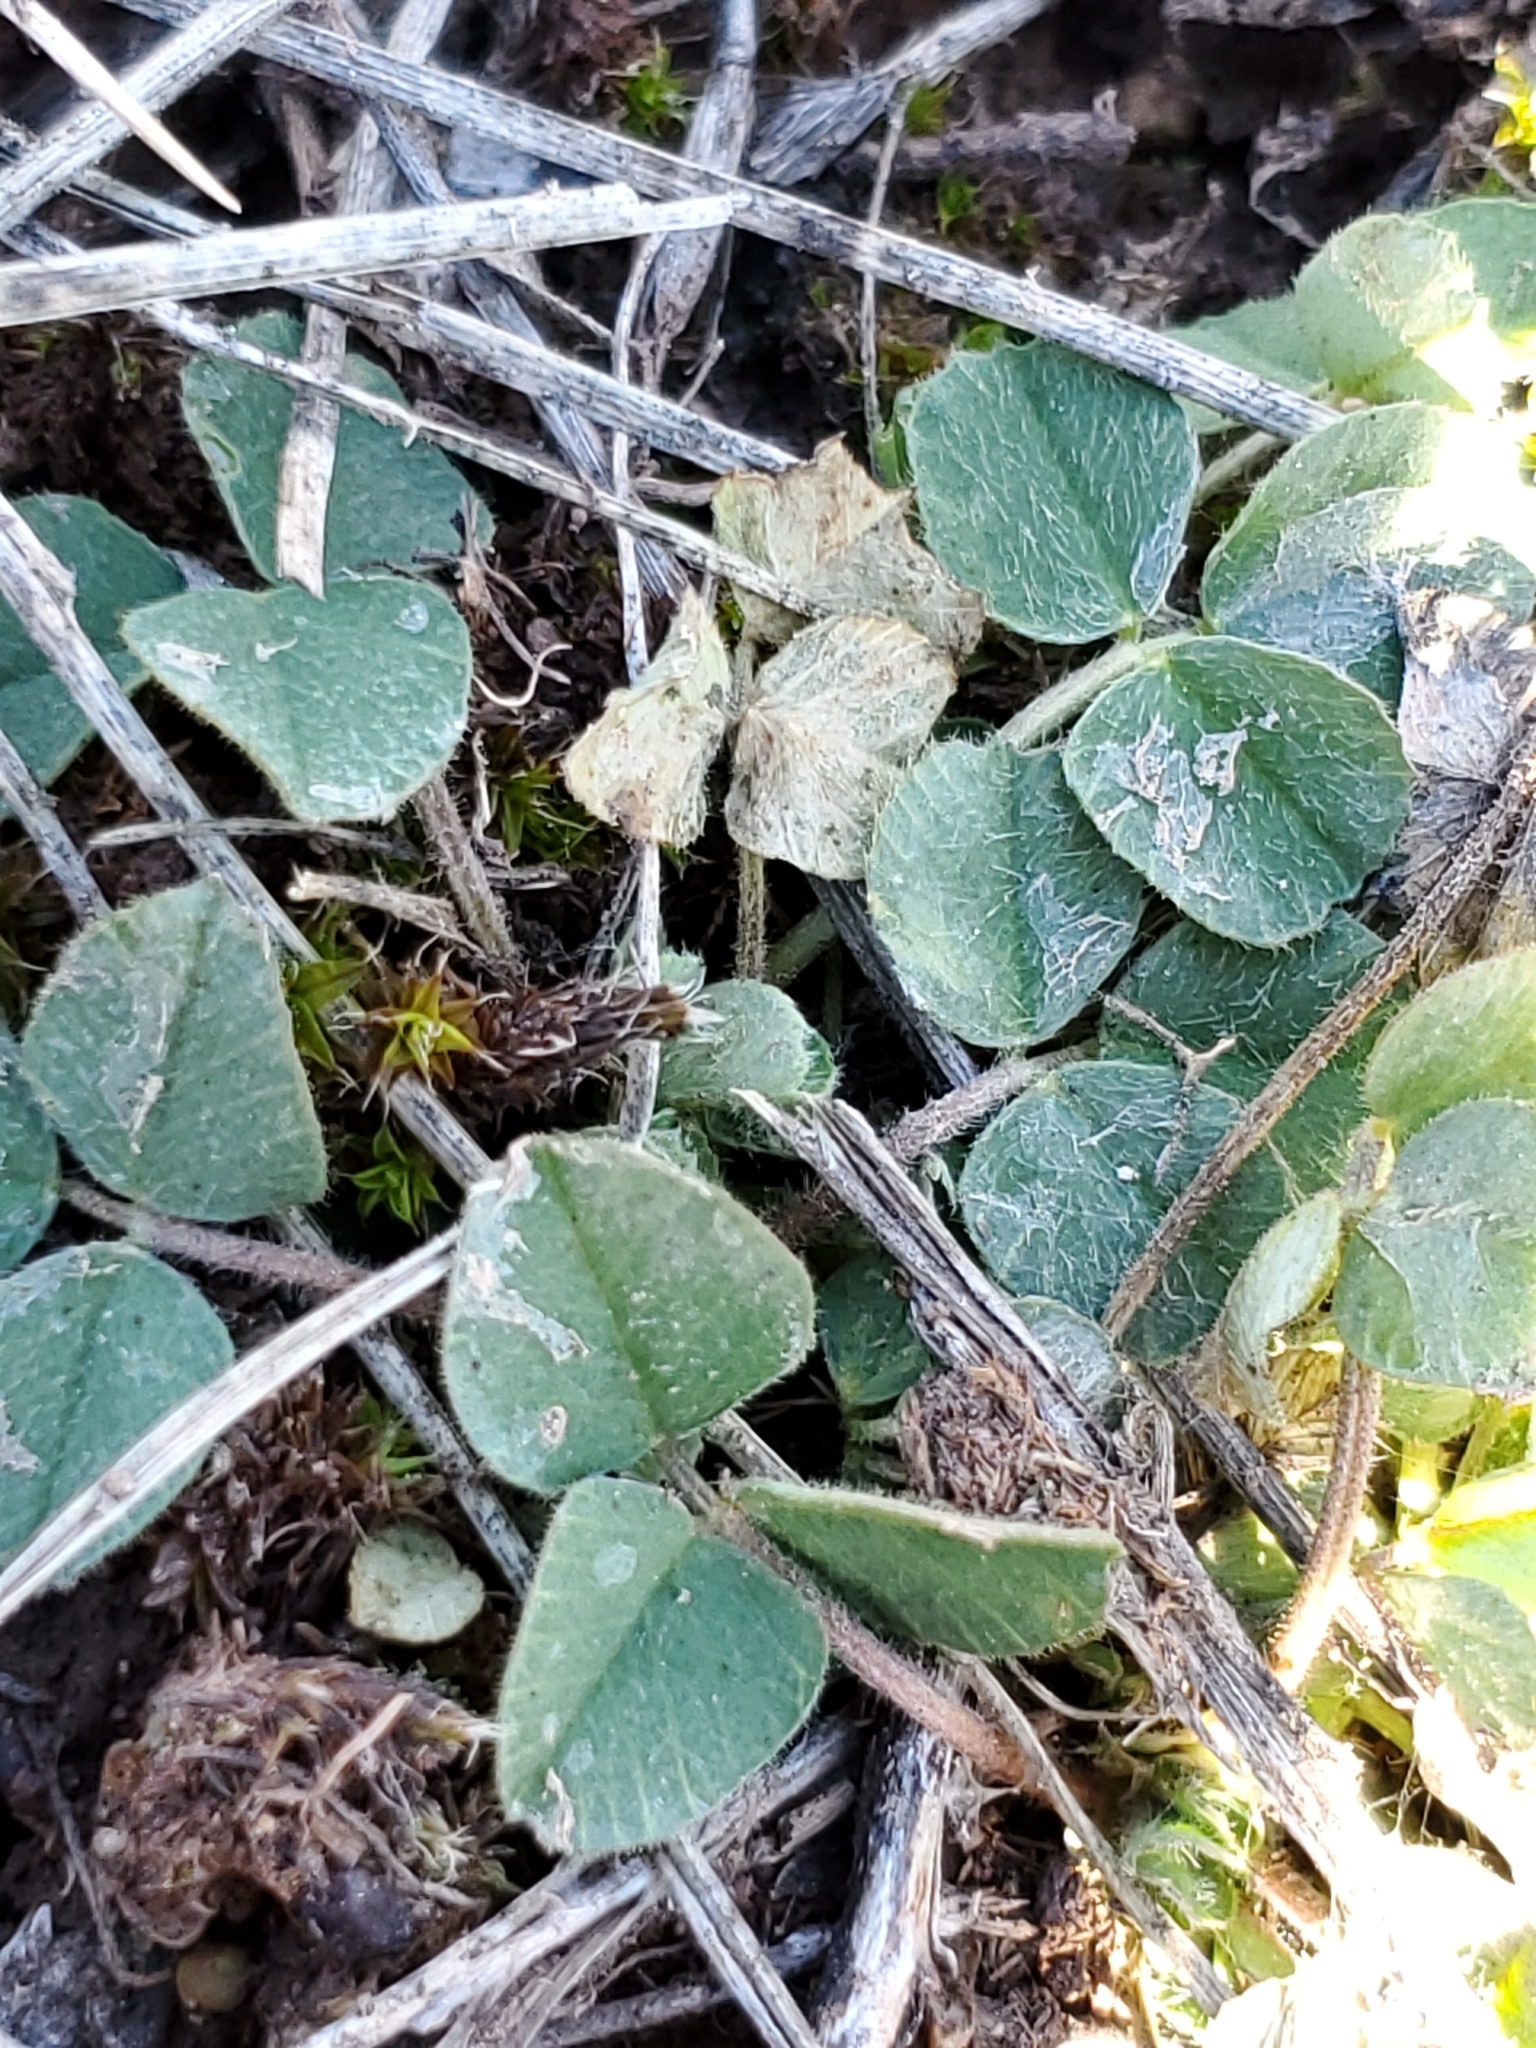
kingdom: Plantae
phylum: Tracheophyta
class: Magnoliopsida
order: Fabales
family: Fabaceae
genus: Medicago
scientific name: Medicago lupulina
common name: Black medick
